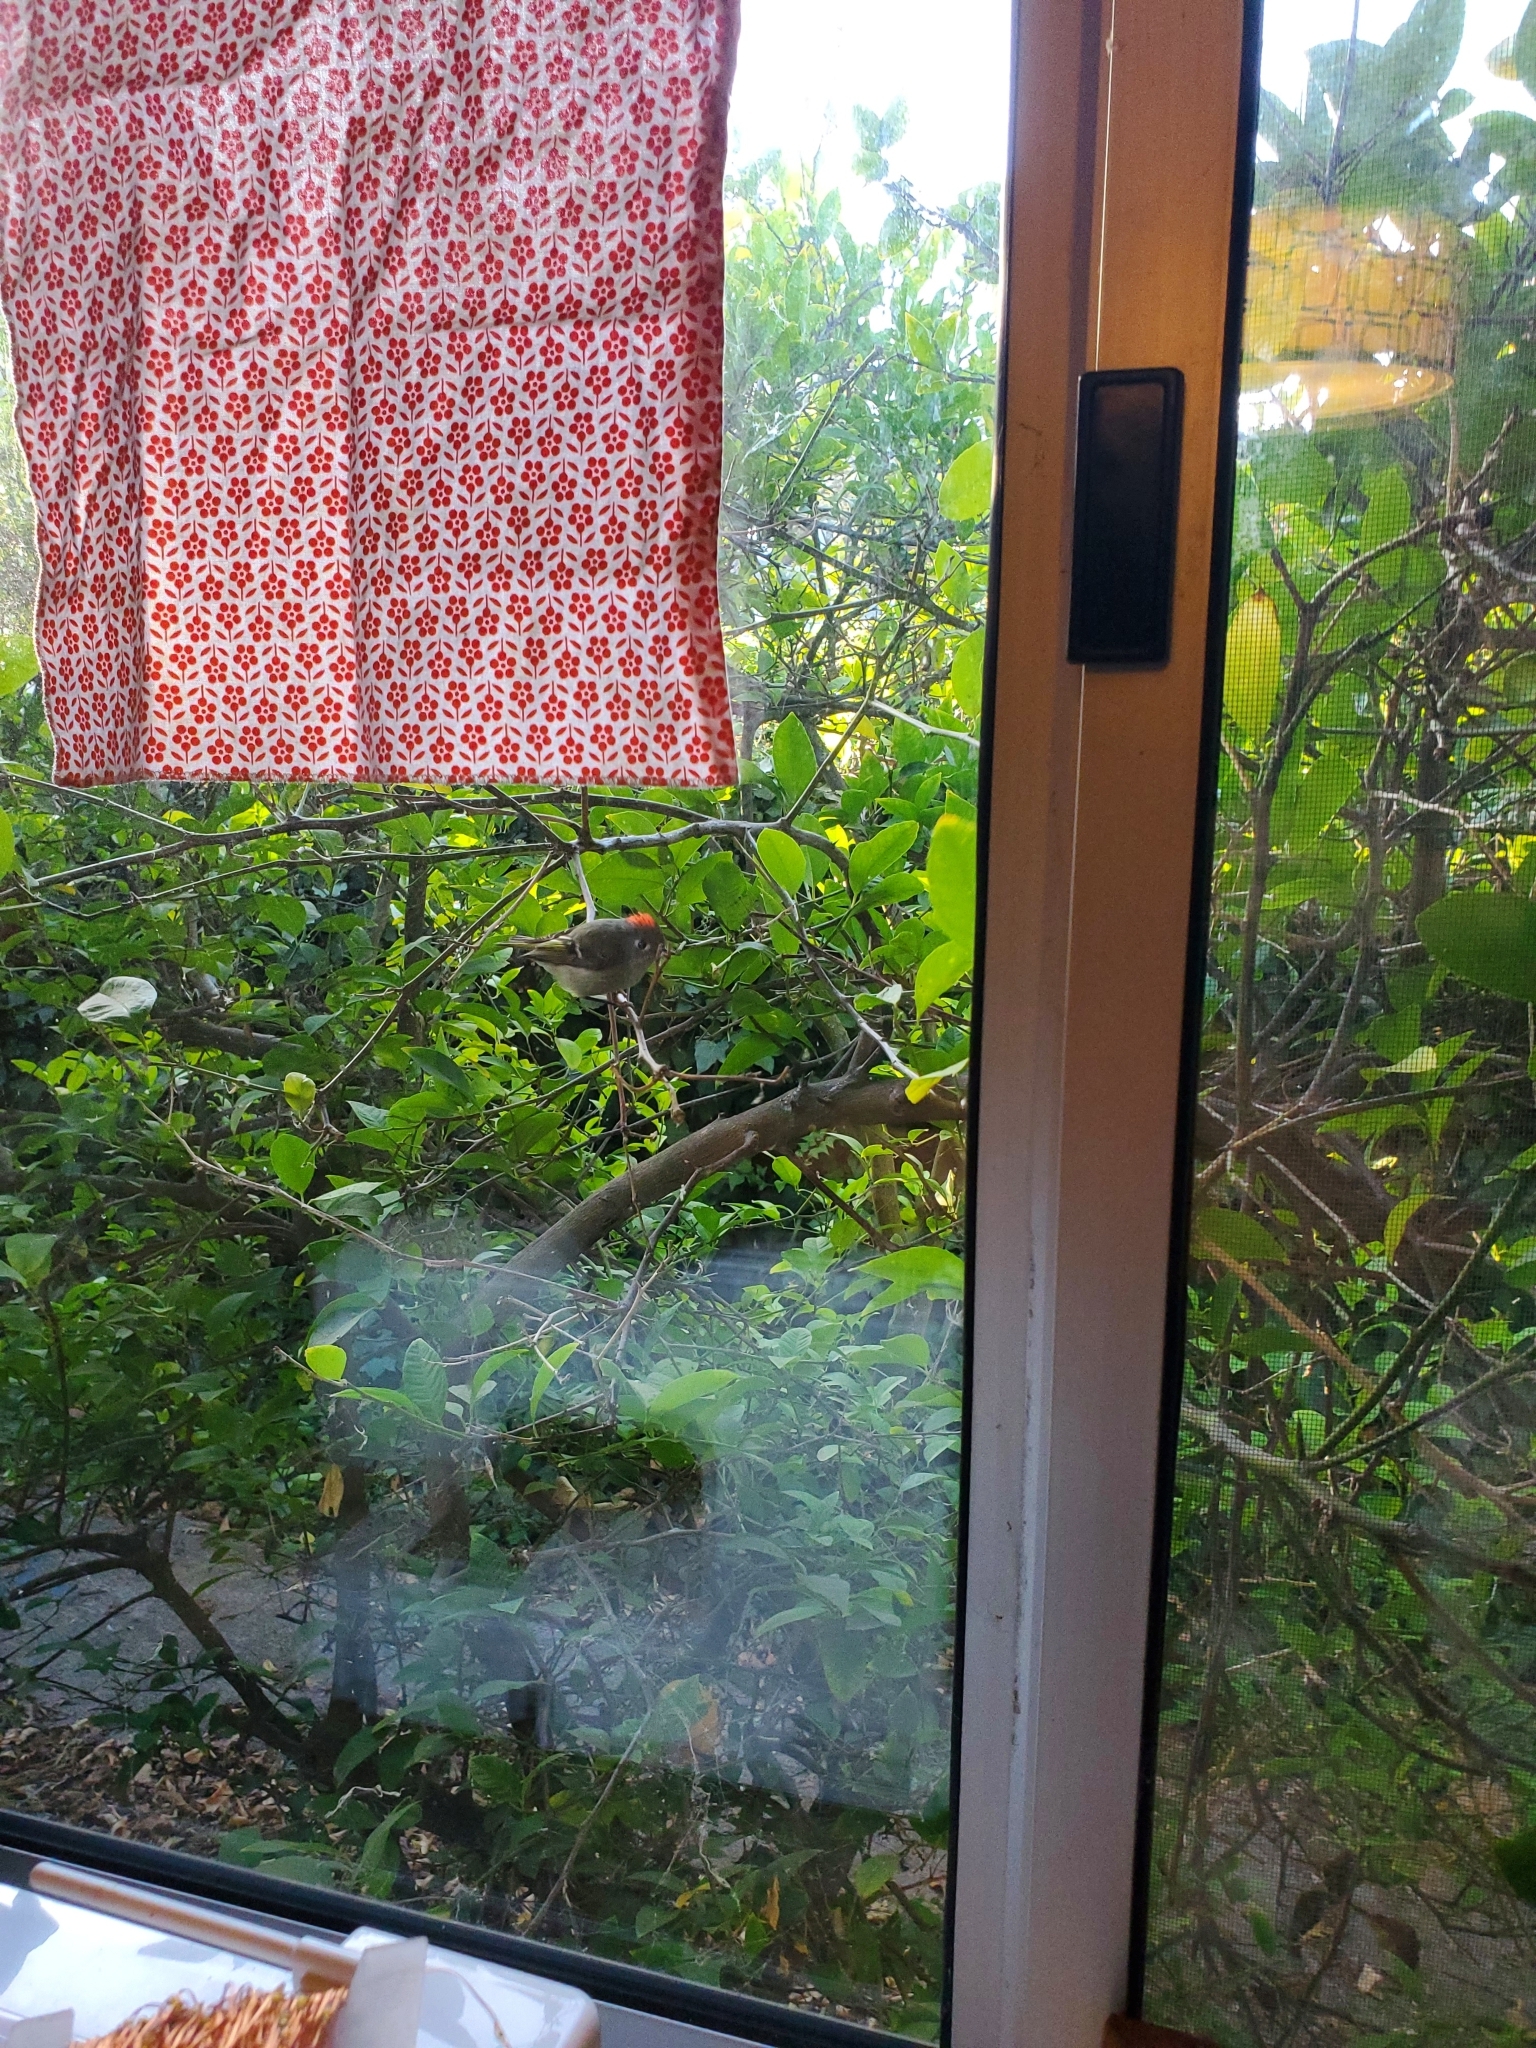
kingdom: Animalia
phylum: Chordata
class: Aves
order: Passeriformes
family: Regulidae
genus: Regulus
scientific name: Regulus calendula
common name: Ruby-crowned kinglet
